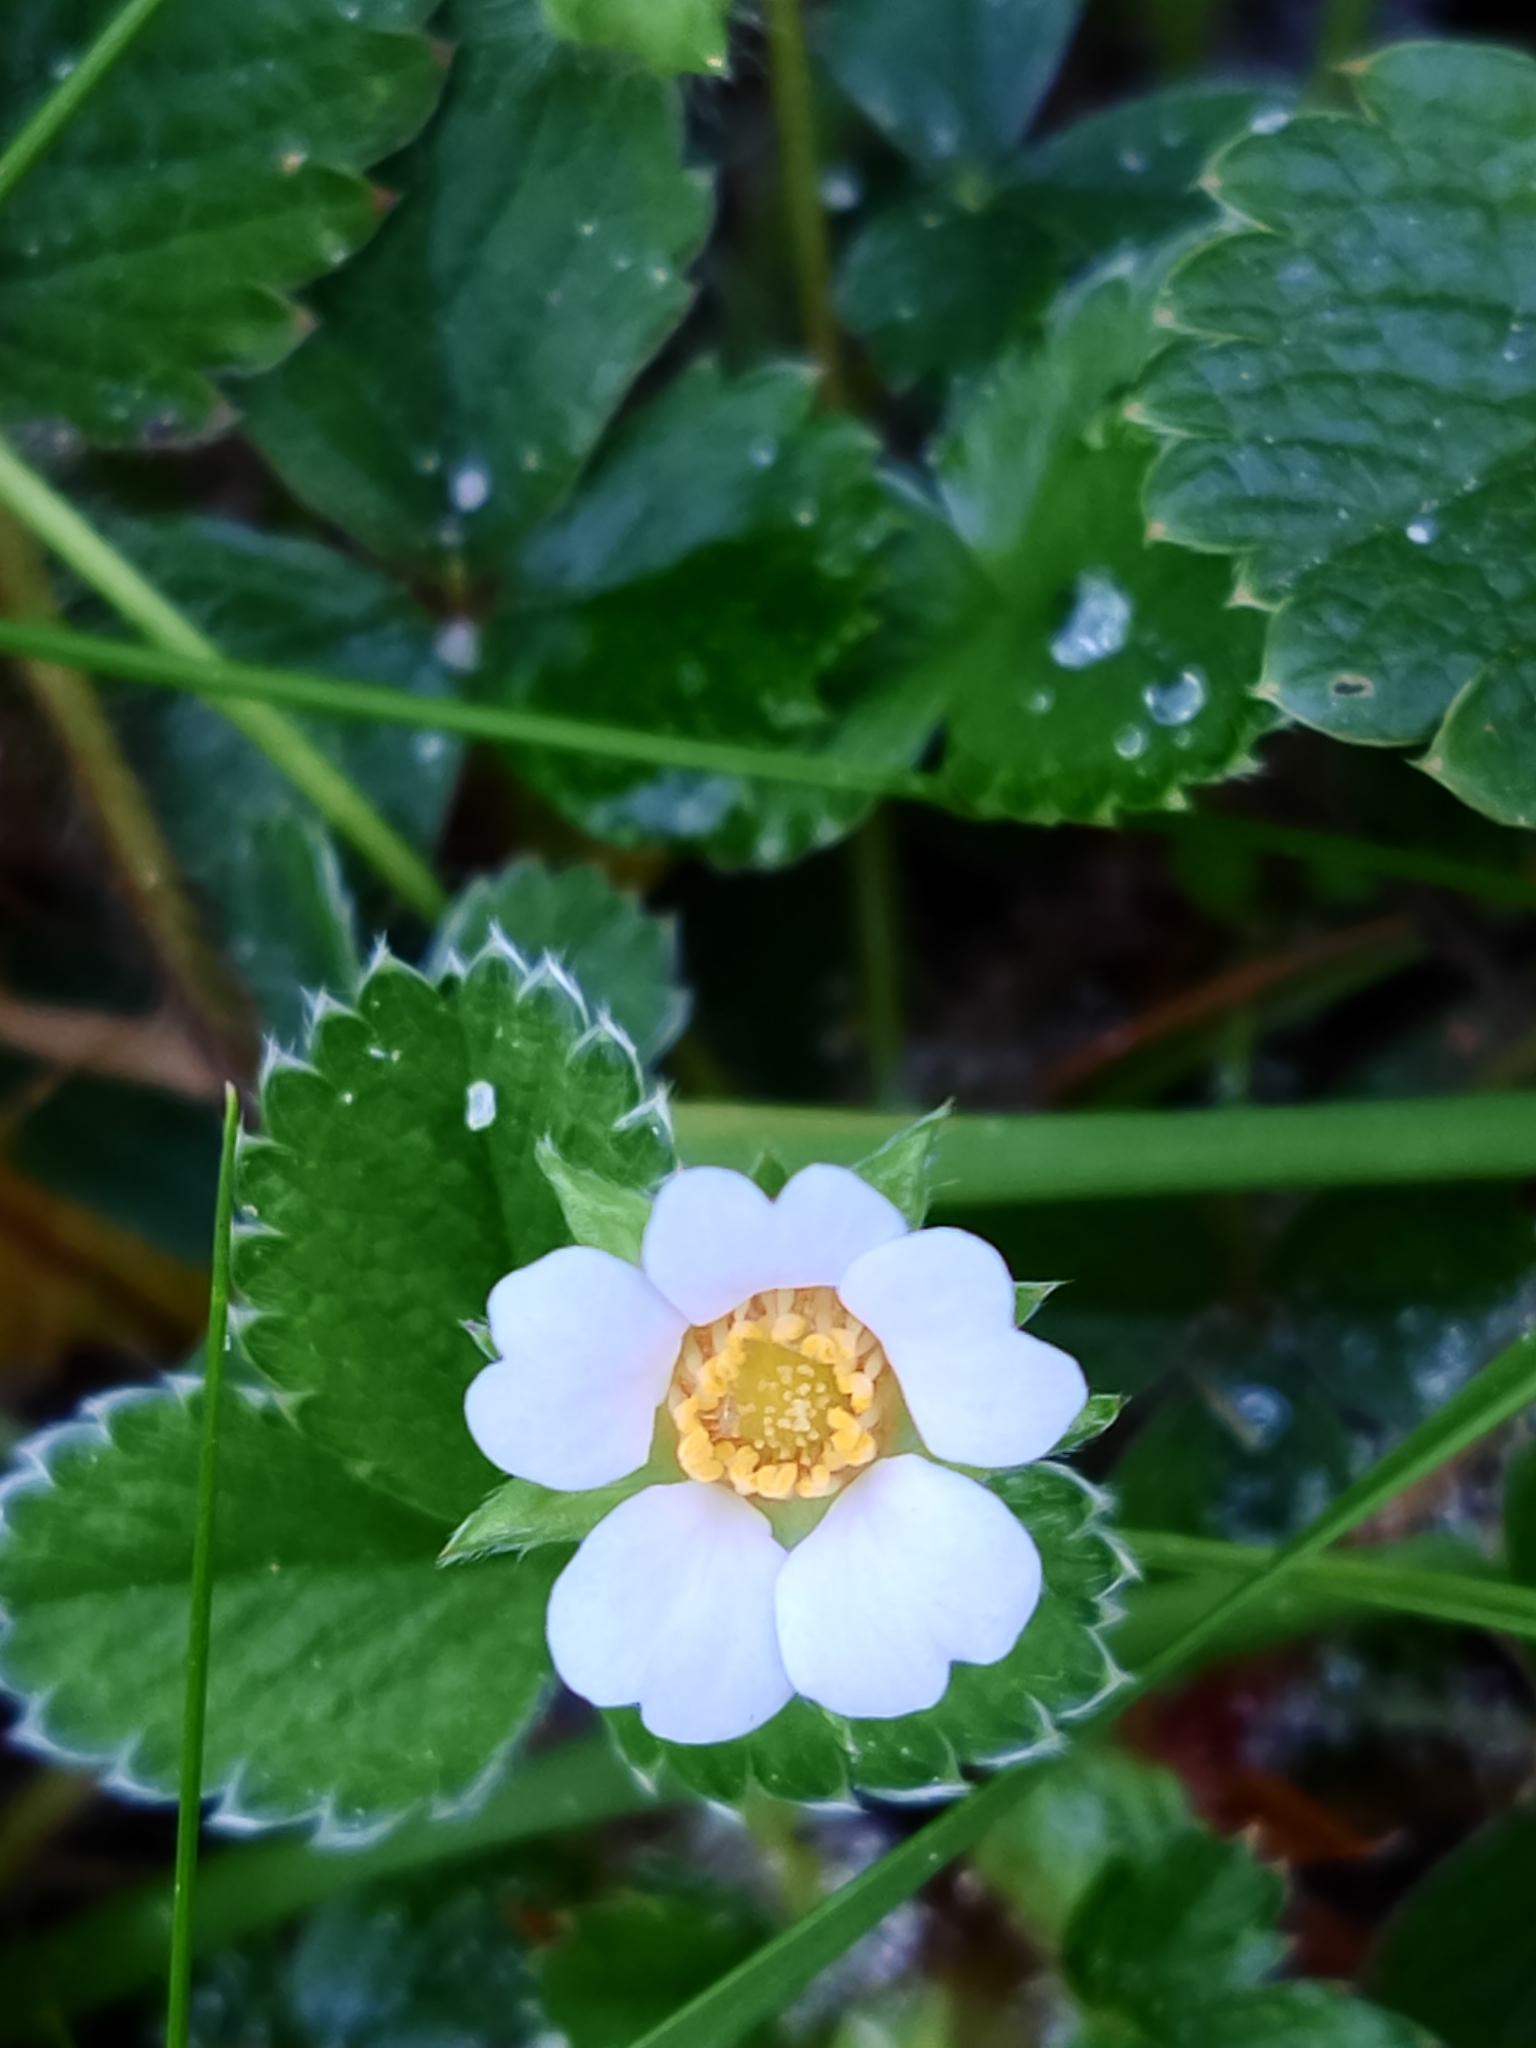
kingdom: Plantae
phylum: Tracheophyta
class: Magnoliopsida
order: Rosales
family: Rosaceae
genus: Potentilla
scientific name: Potentilla sterilis
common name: Barren strawberry
